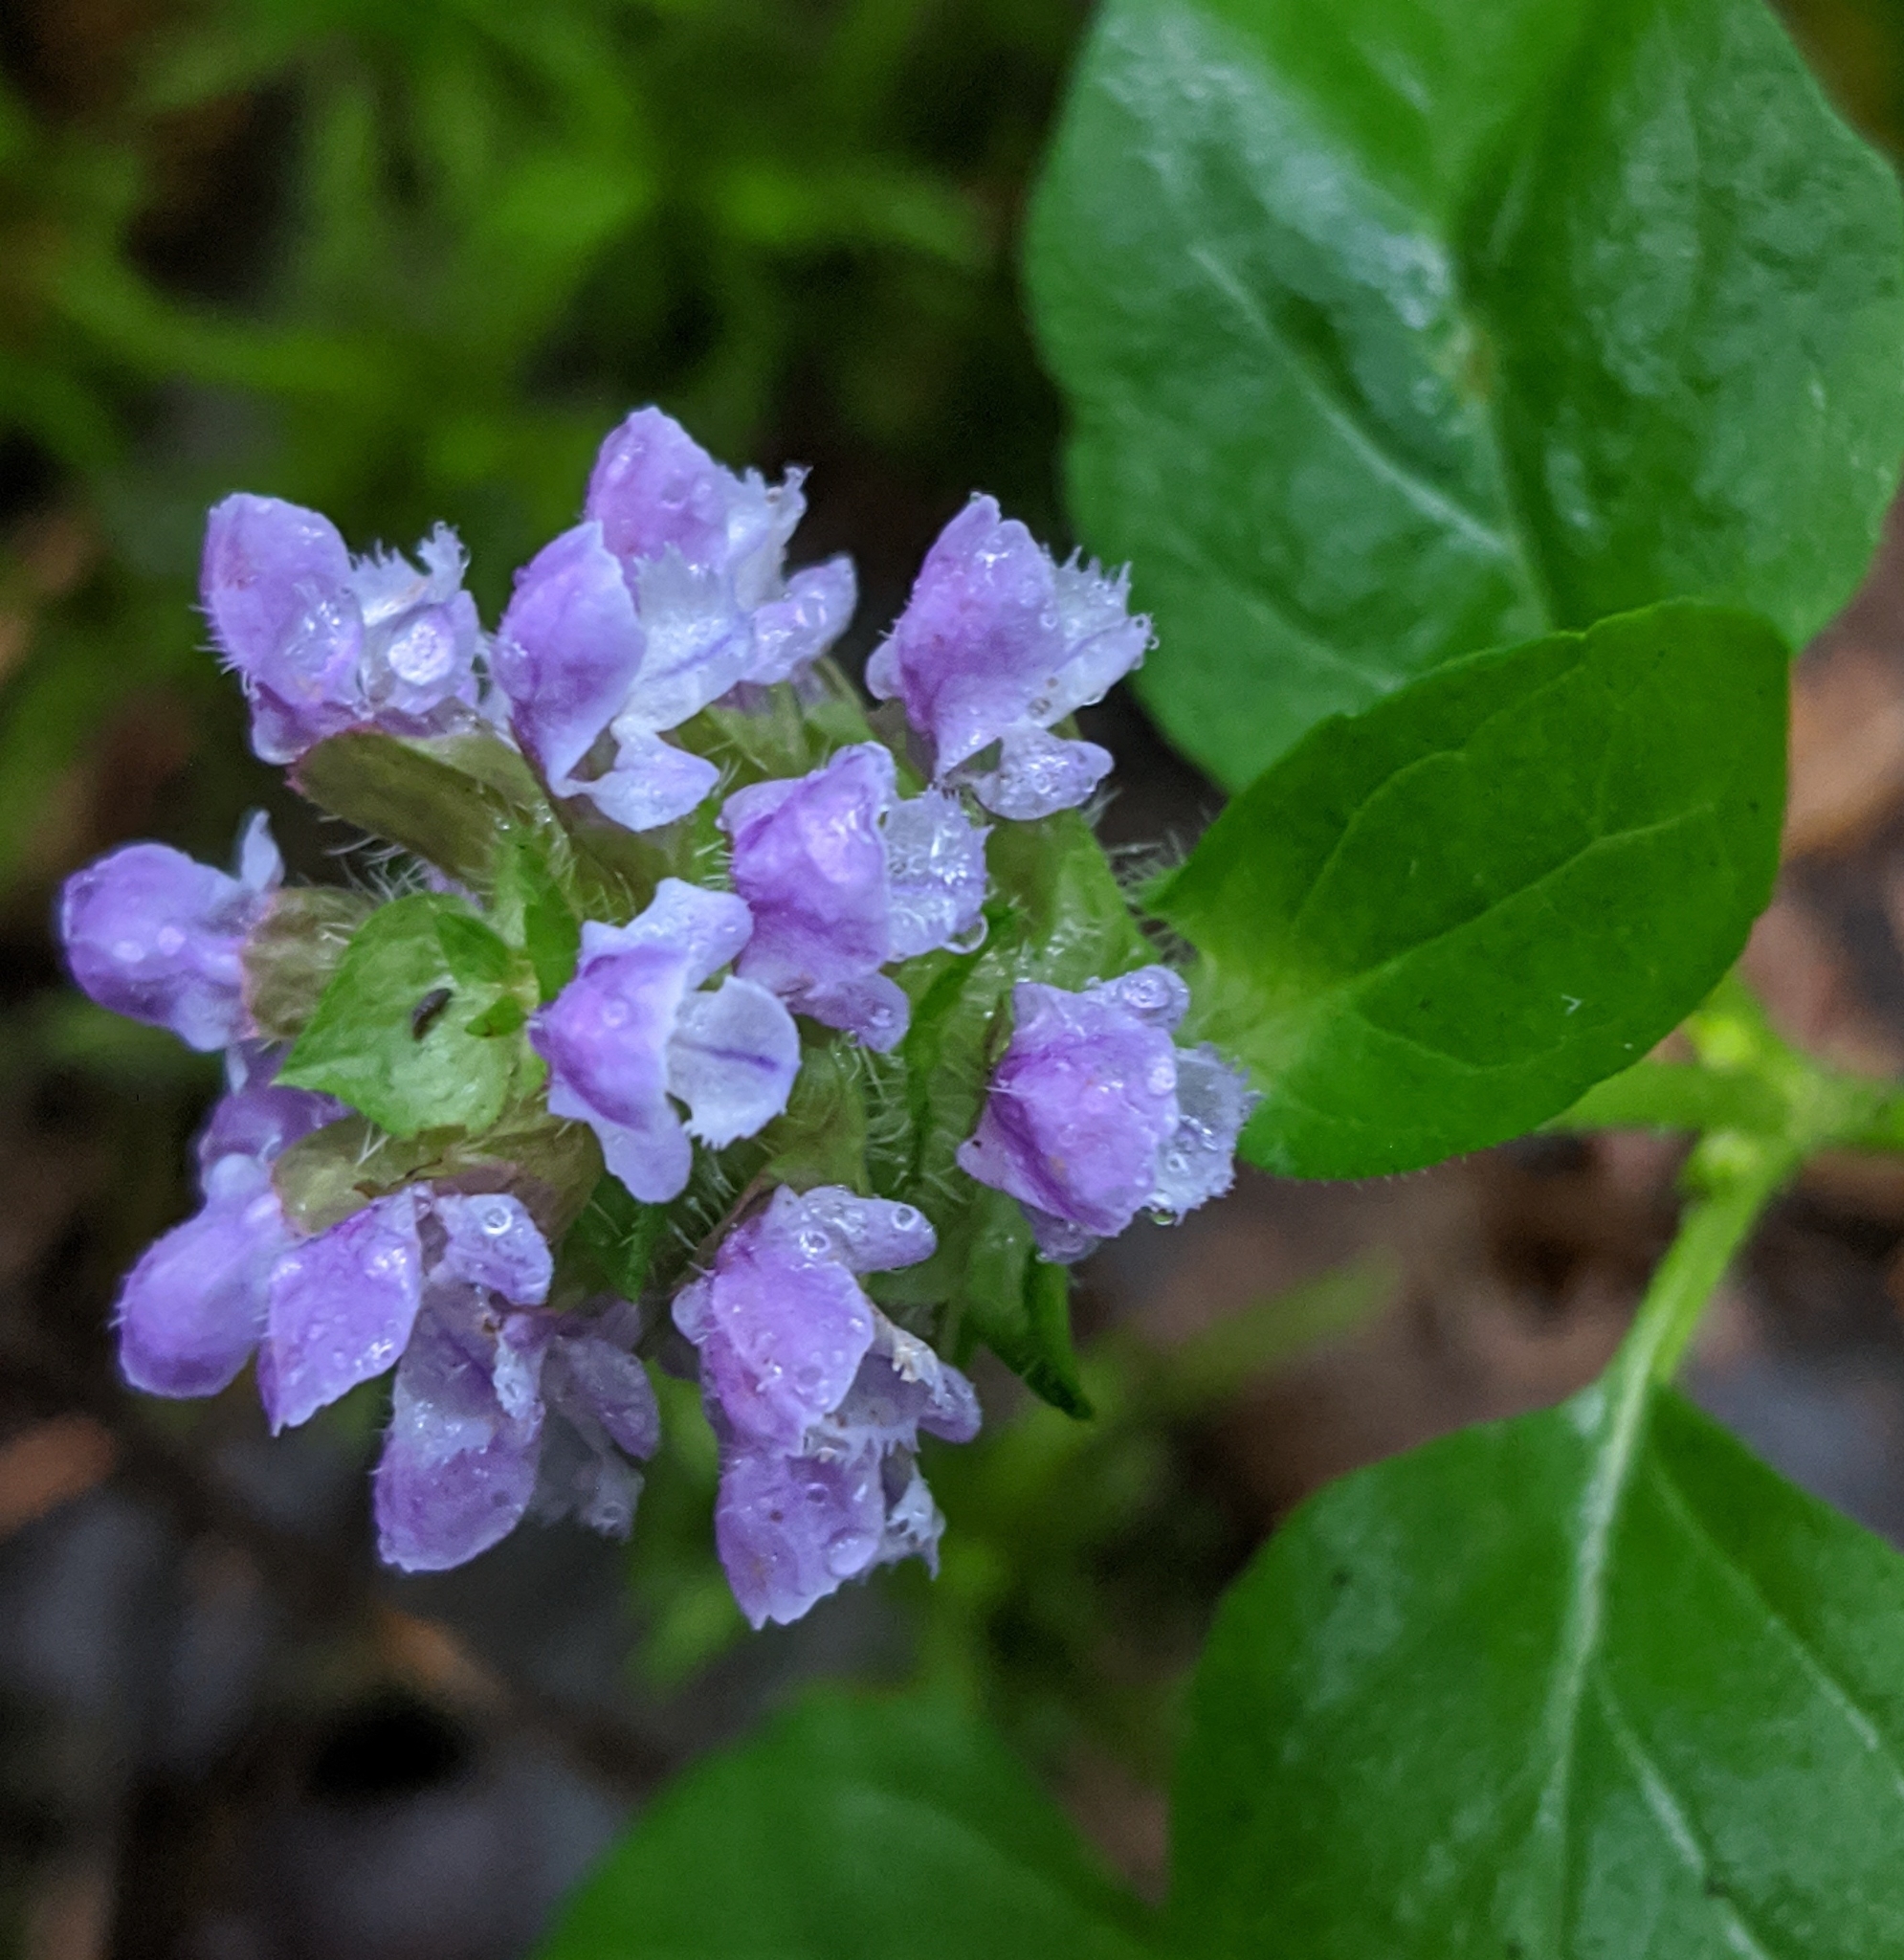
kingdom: Plantae
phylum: Tracheophyta
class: Magnoliopsida
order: Lamiales
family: Lamiaceae
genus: Prunella
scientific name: Prunella vulgaris
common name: Heal-all
